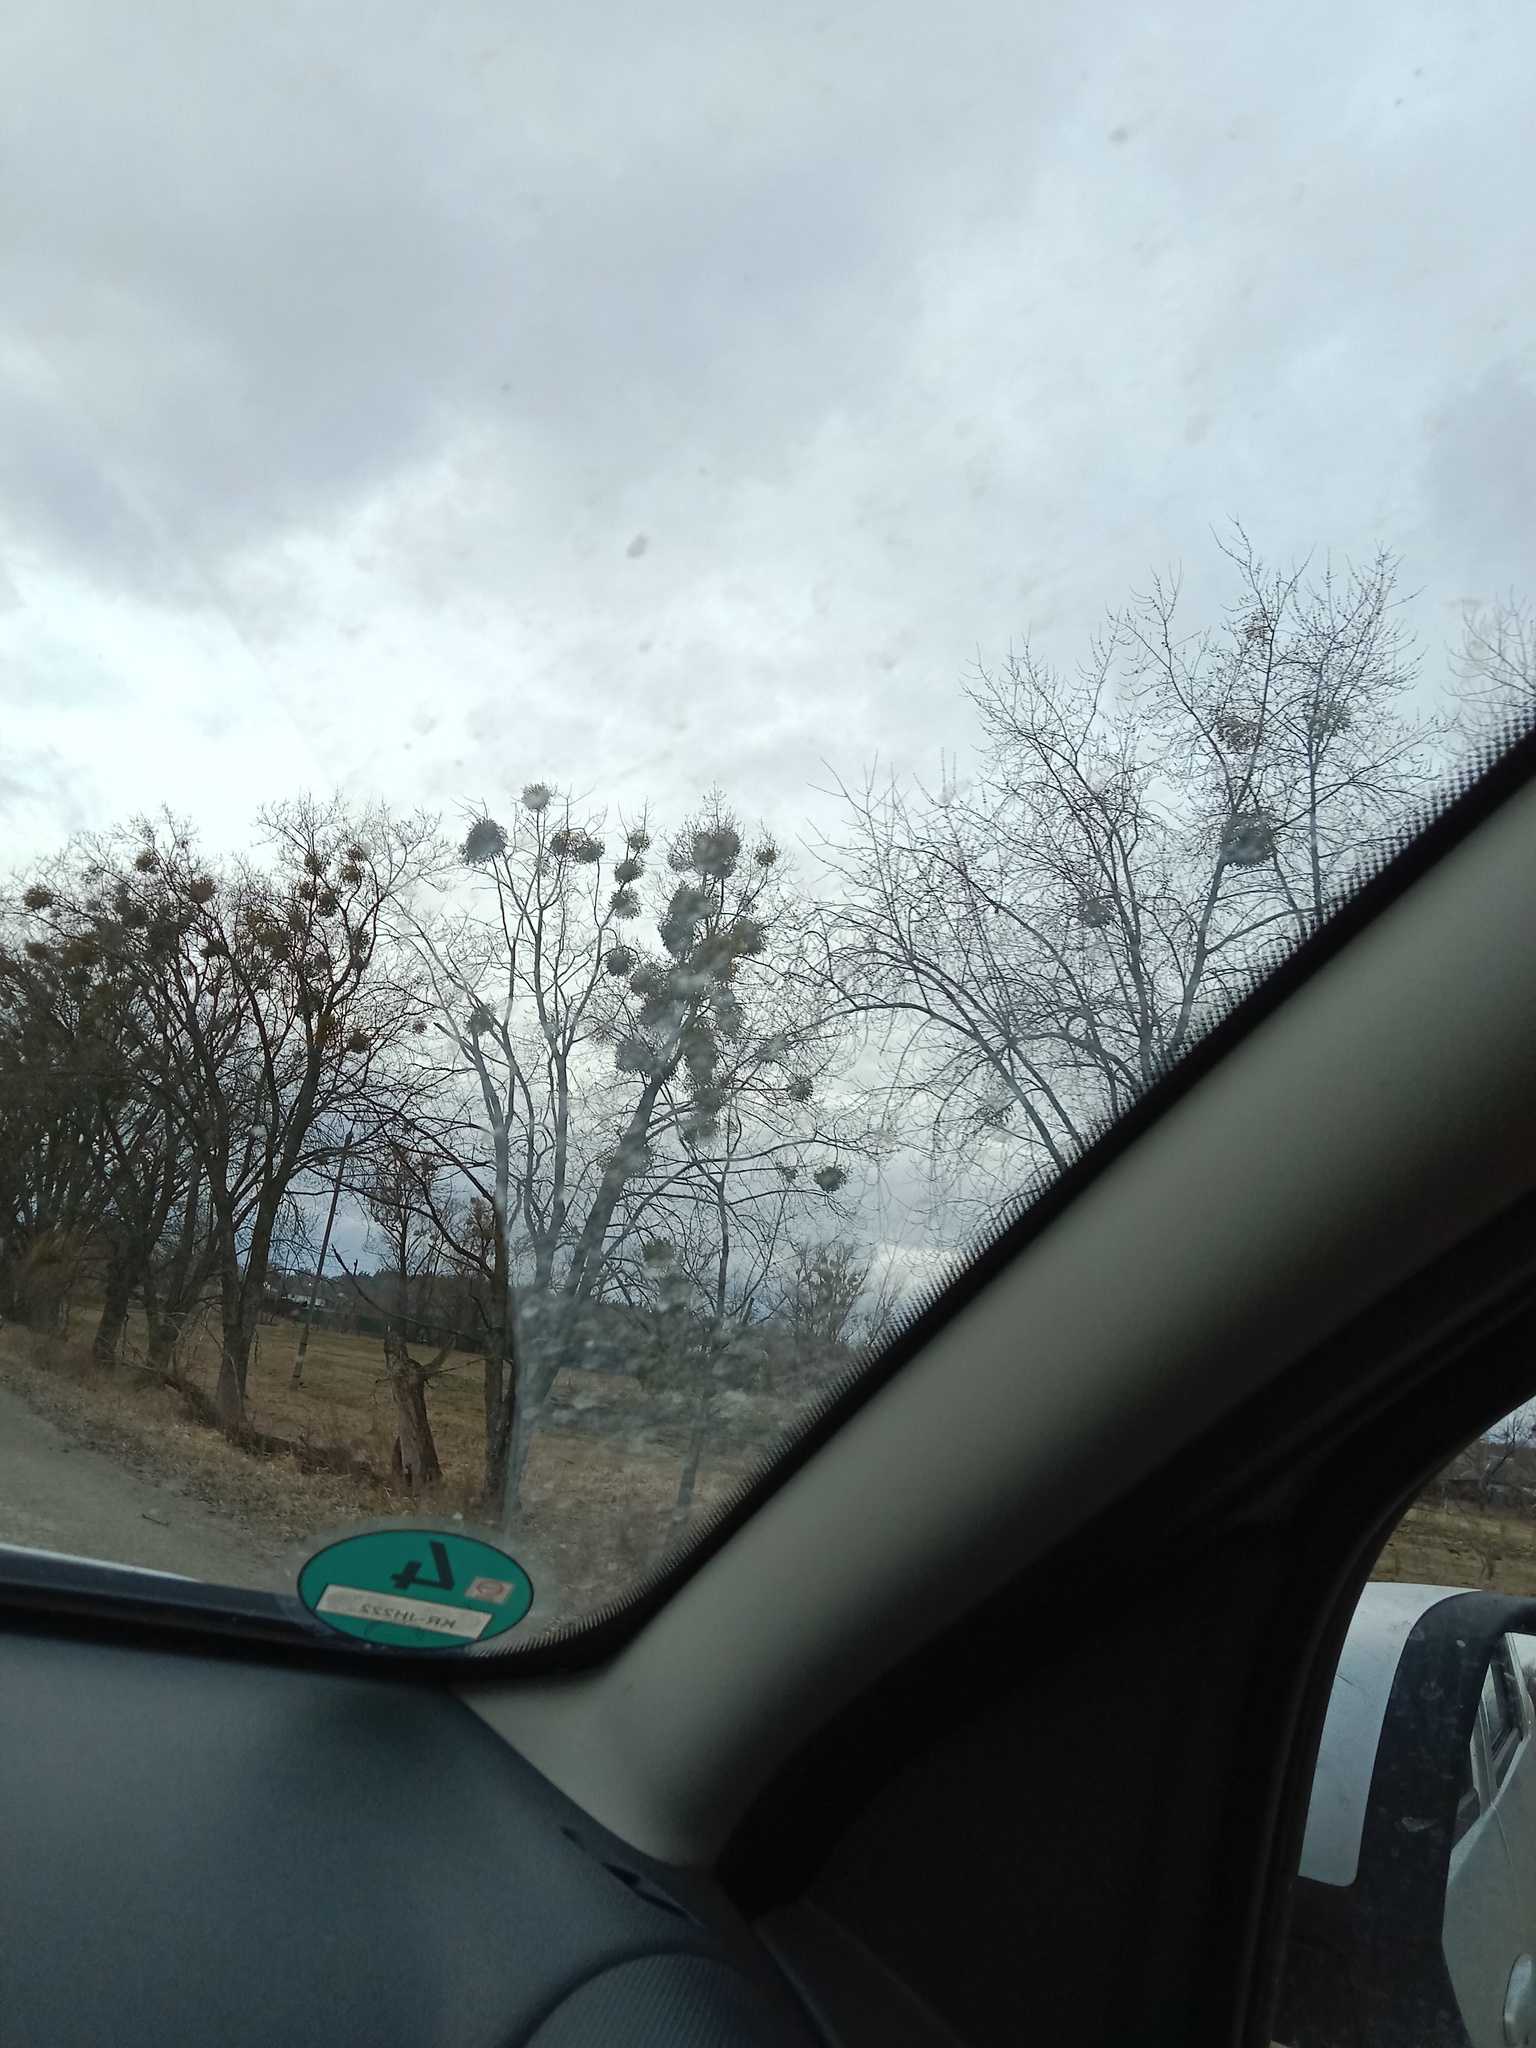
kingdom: Plantae
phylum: Tracheophyta
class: Magnoliopsida
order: Santalales
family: Viscaceae
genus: Viscum
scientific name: Viscum album
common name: Mistletoe
